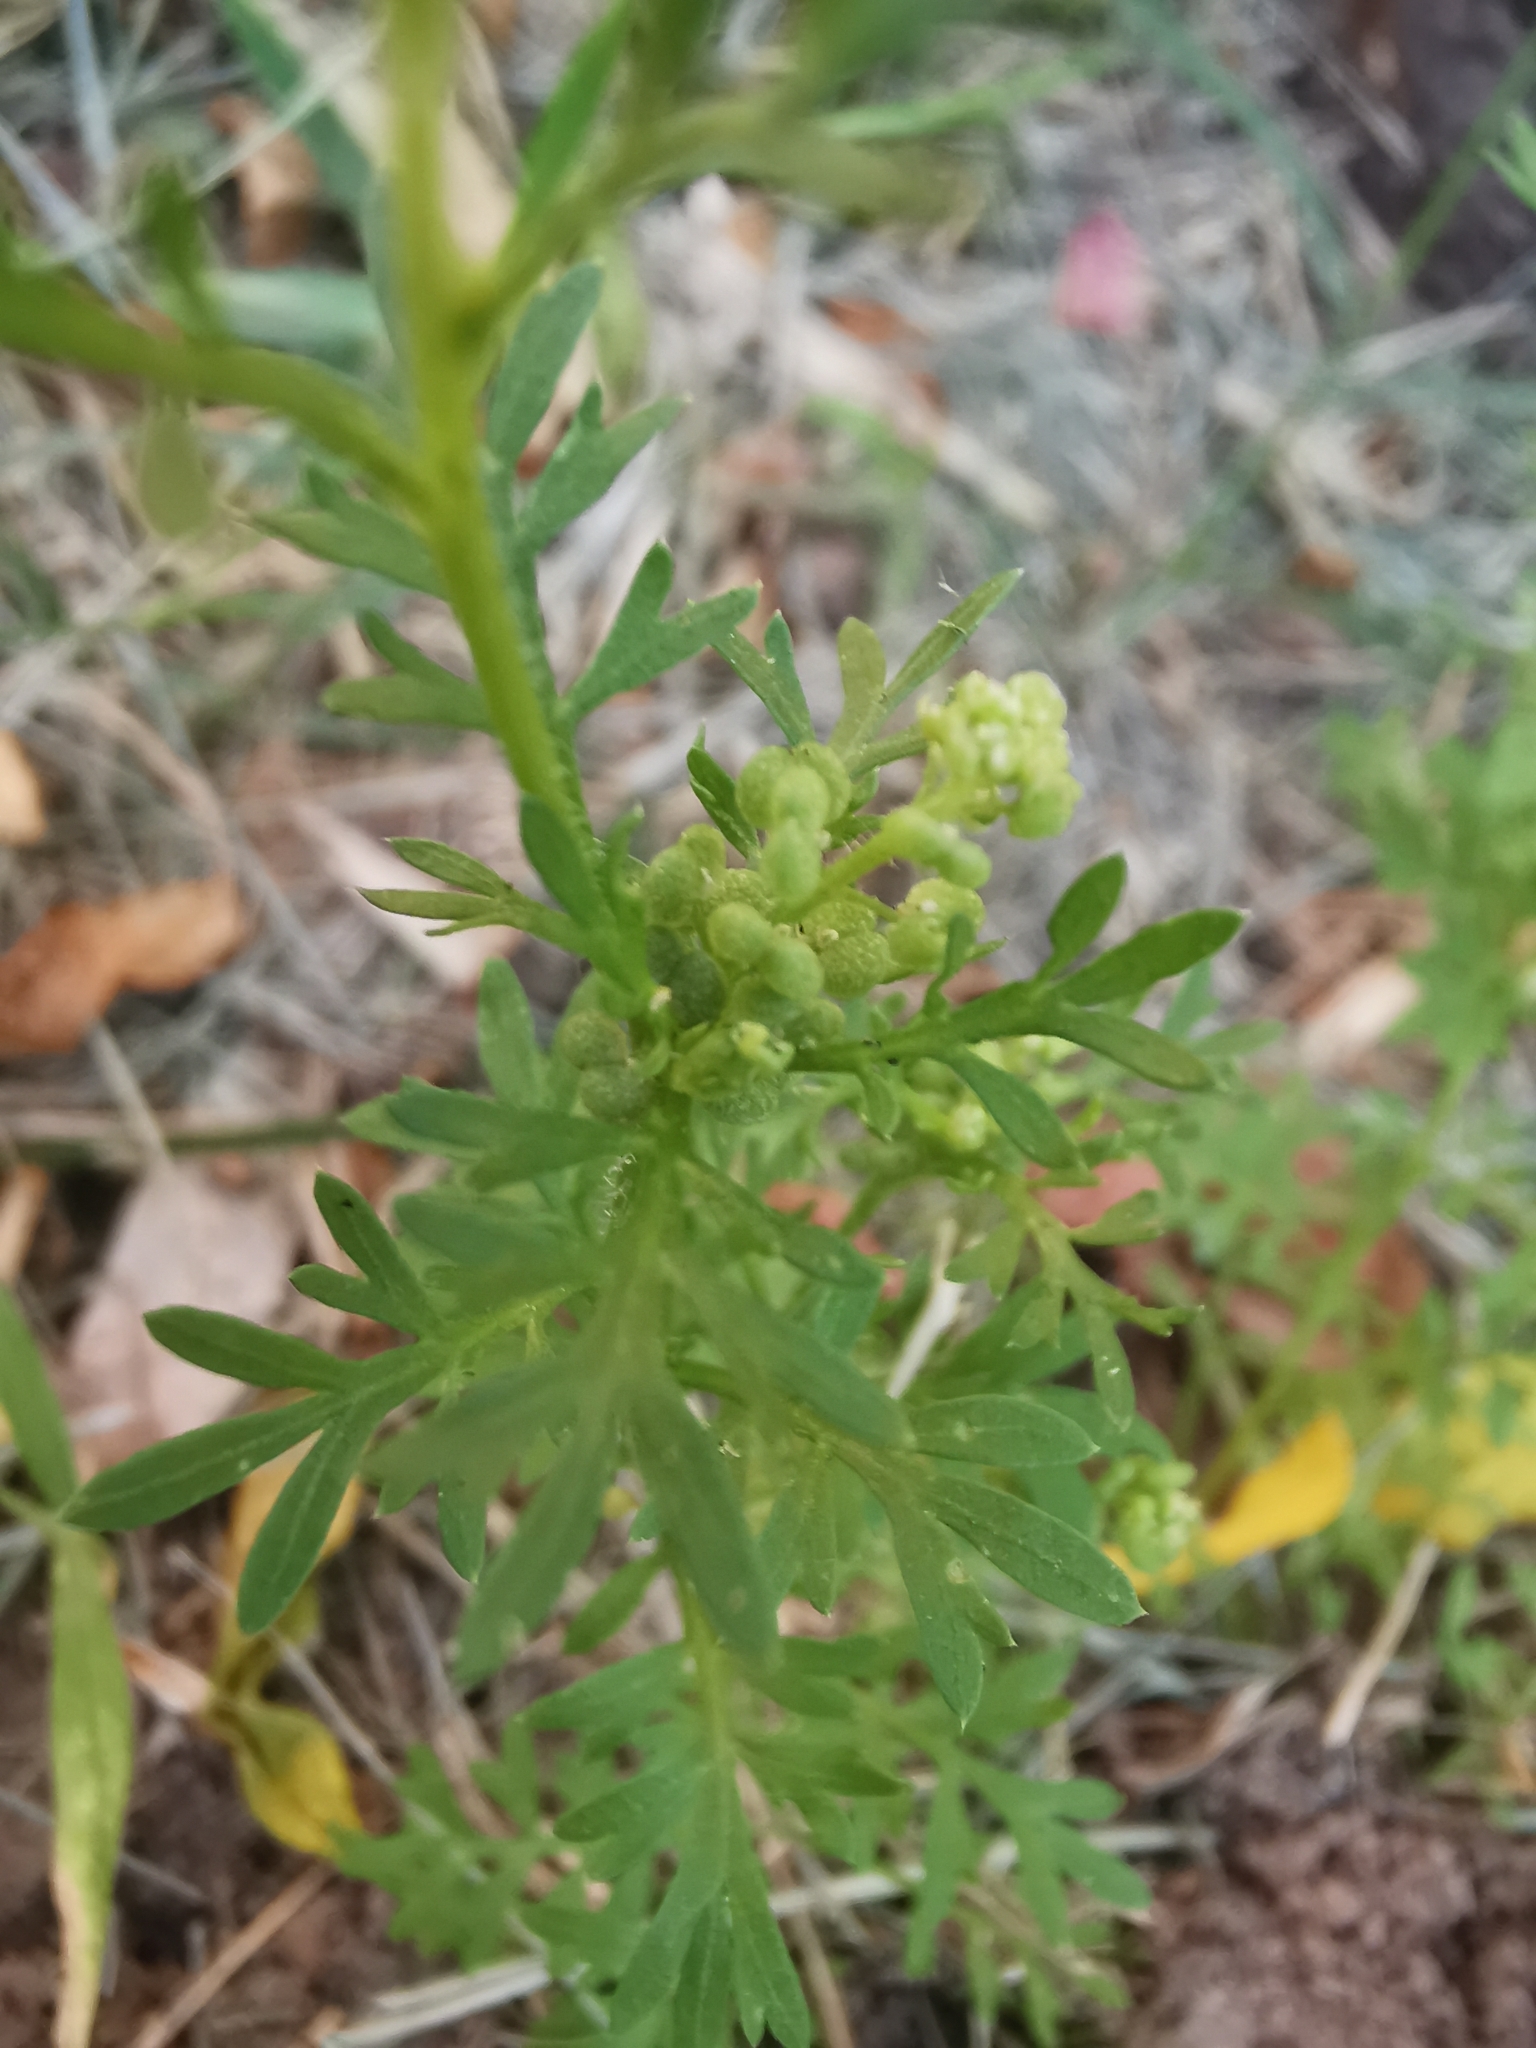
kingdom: Plantae
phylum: Tracheophyta
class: Magnoliopsida
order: Brassicales
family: Brassicaceae
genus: Lepidium
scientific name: Lepidium didymum
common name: Lesser swinecress
